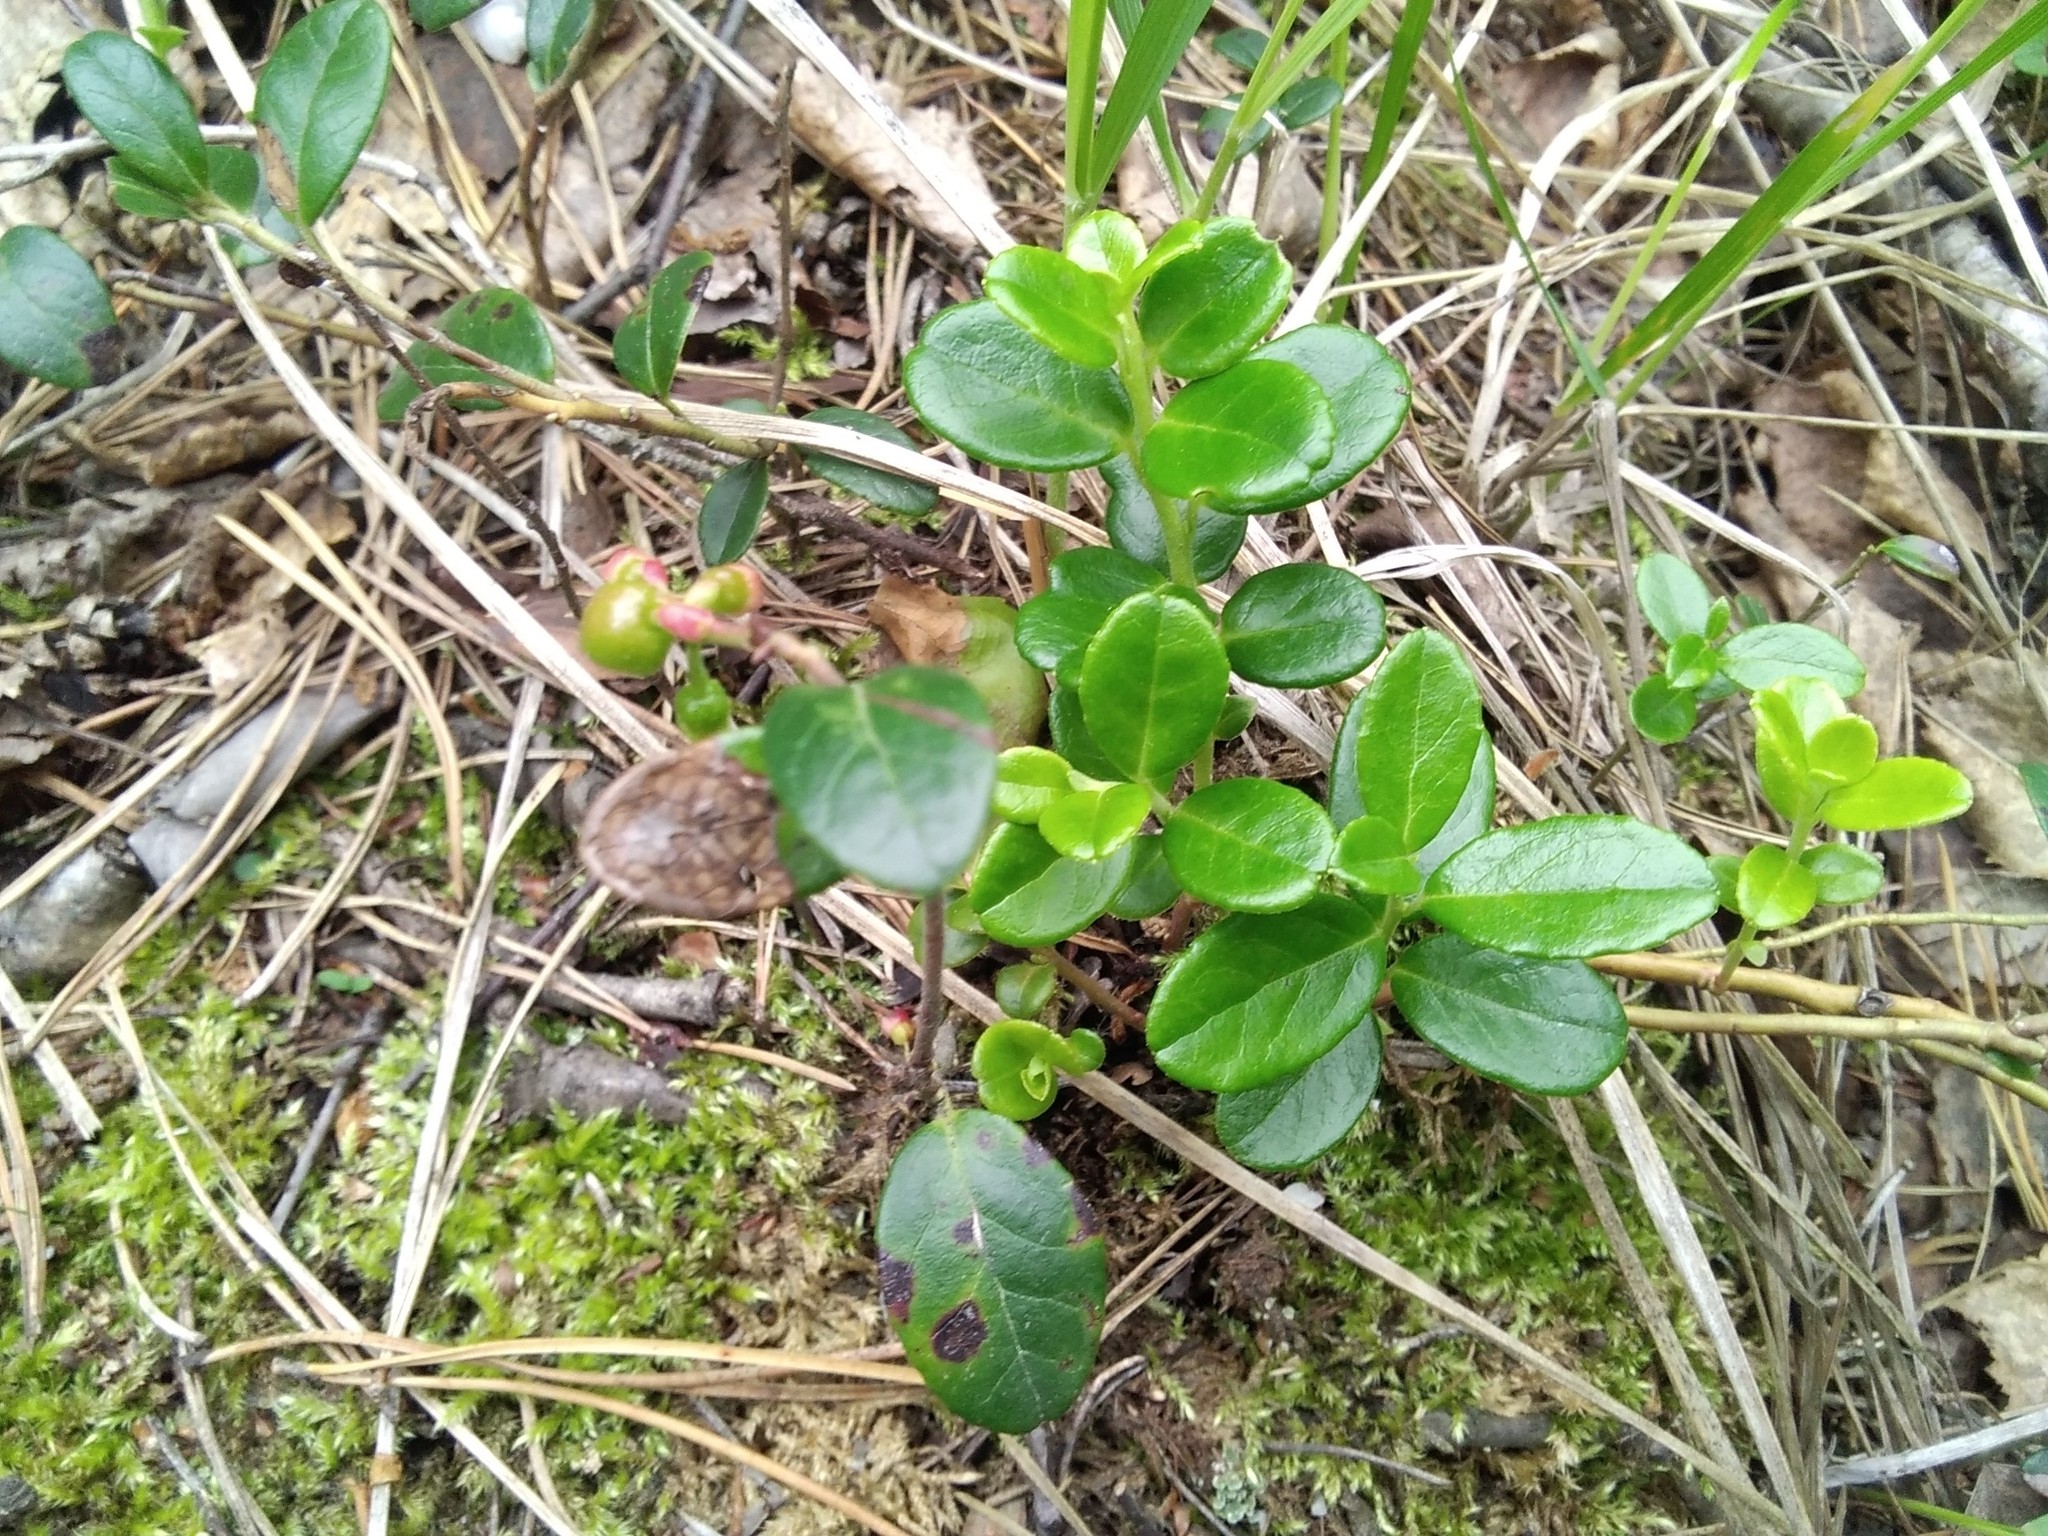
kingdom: Plantae
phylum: Tracheophyta
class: Magnoliopsida
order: Ericales
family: Ericaceae
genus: Vaccinium
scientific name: Vaccinium vitis-idaea
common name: Cowberry
